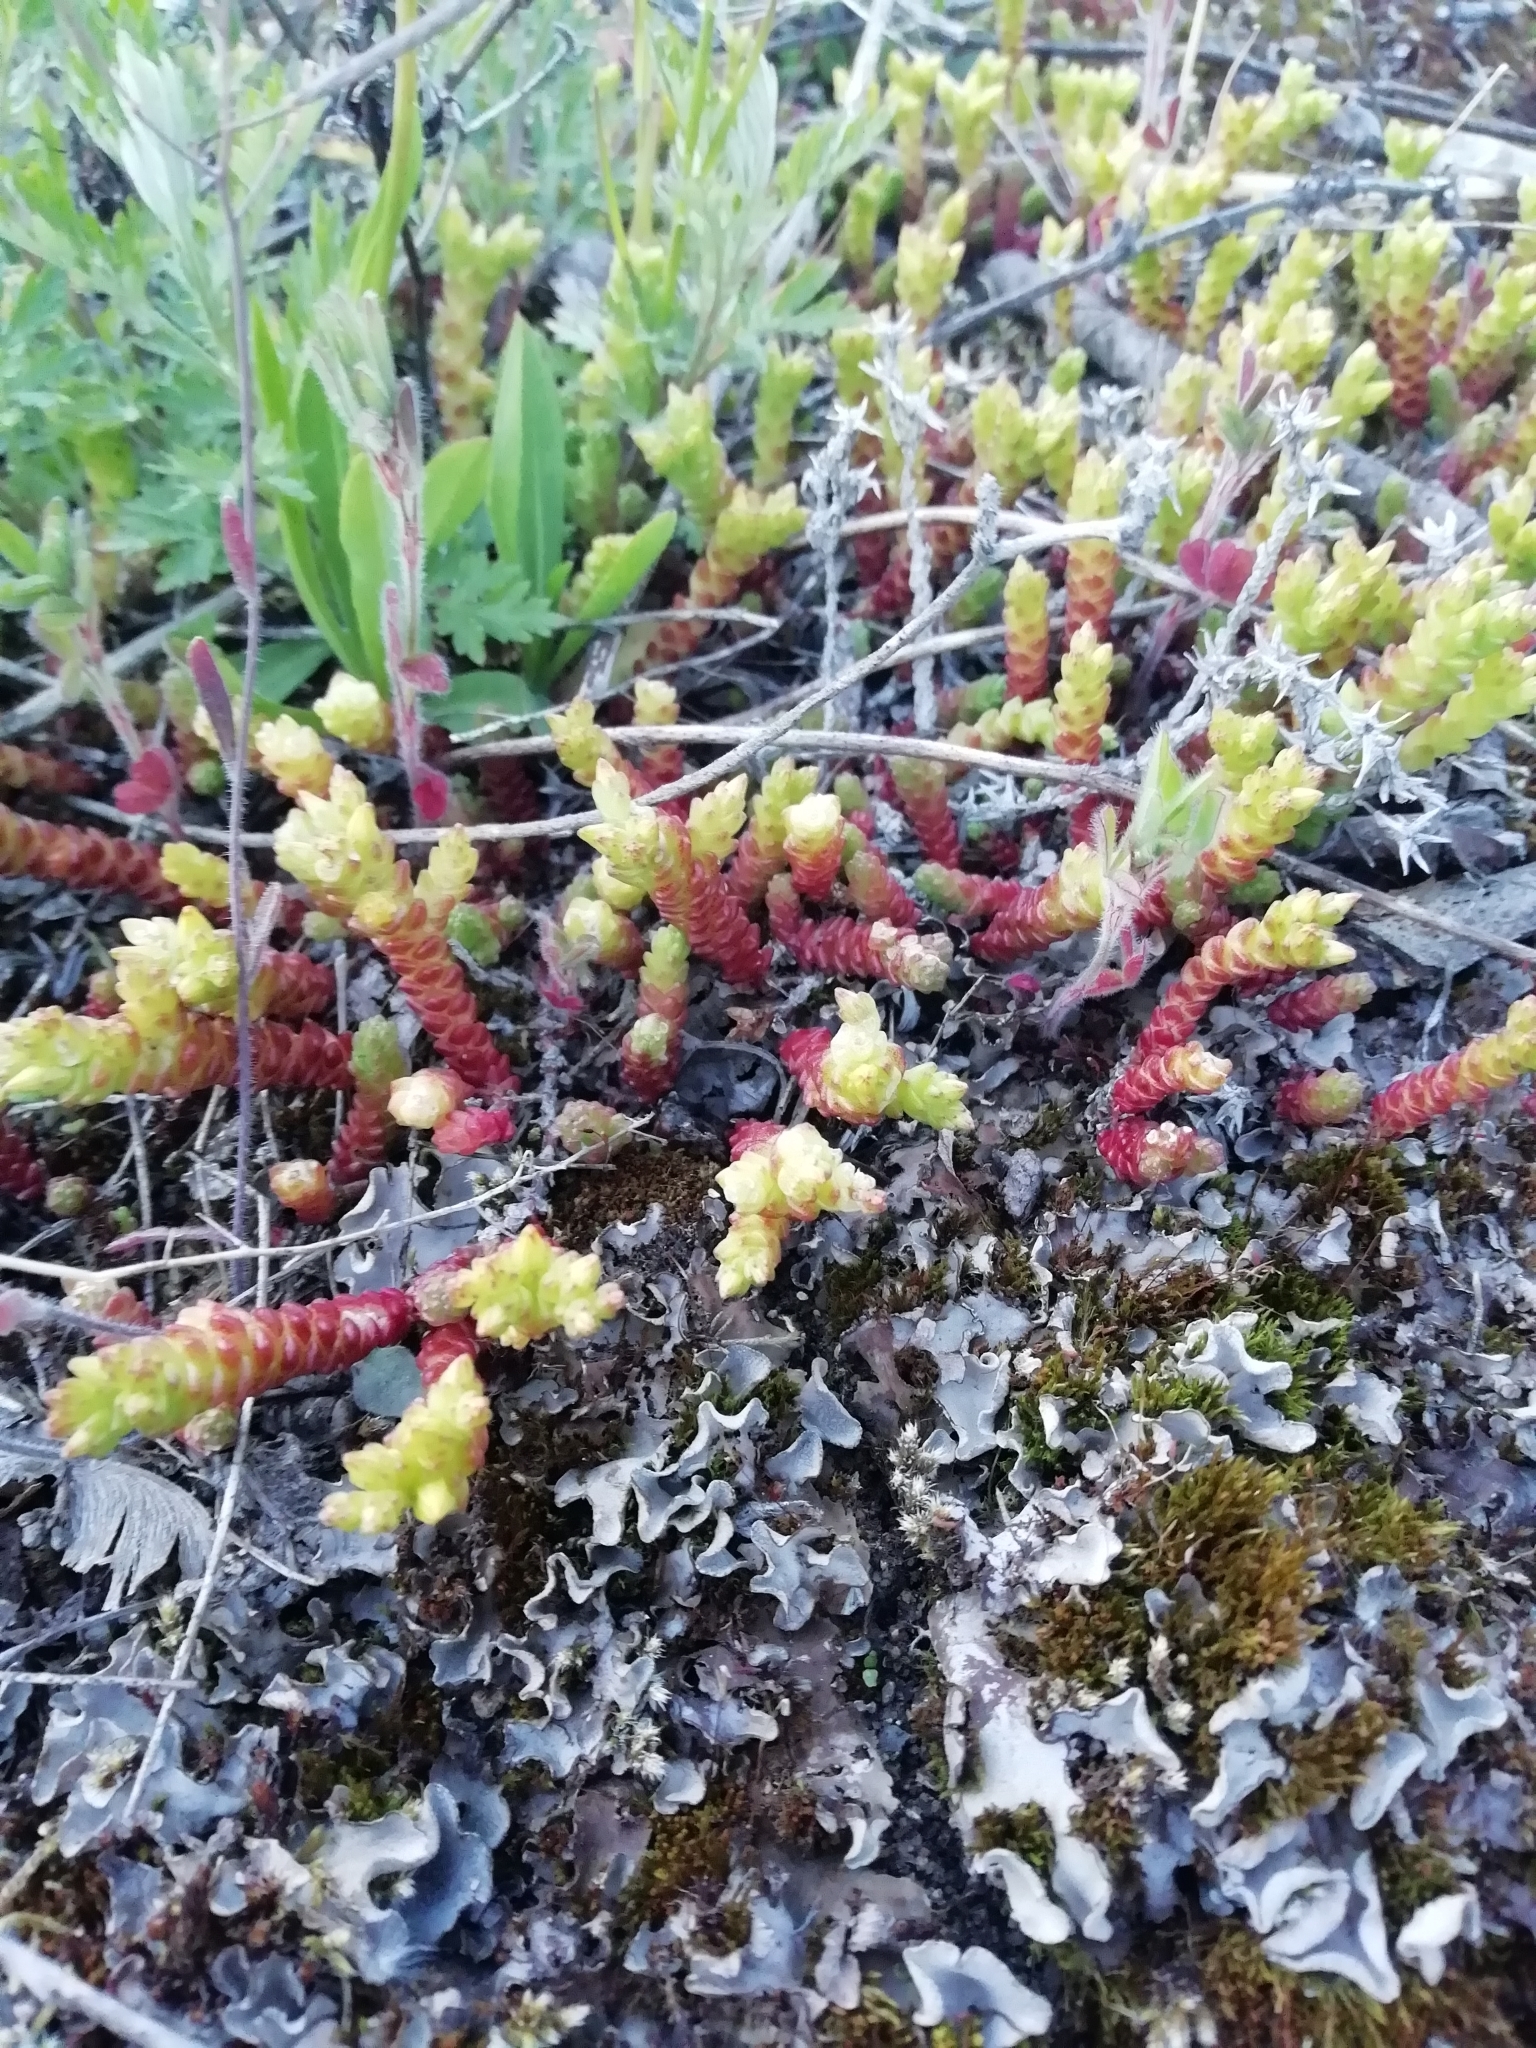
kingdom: Plantae
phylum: Tracheophyta
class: Magnoliopsida
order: Saxifragales
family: Crassulaceae
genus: Sedum
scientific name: Sedum acre
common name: Biting stonecrop
